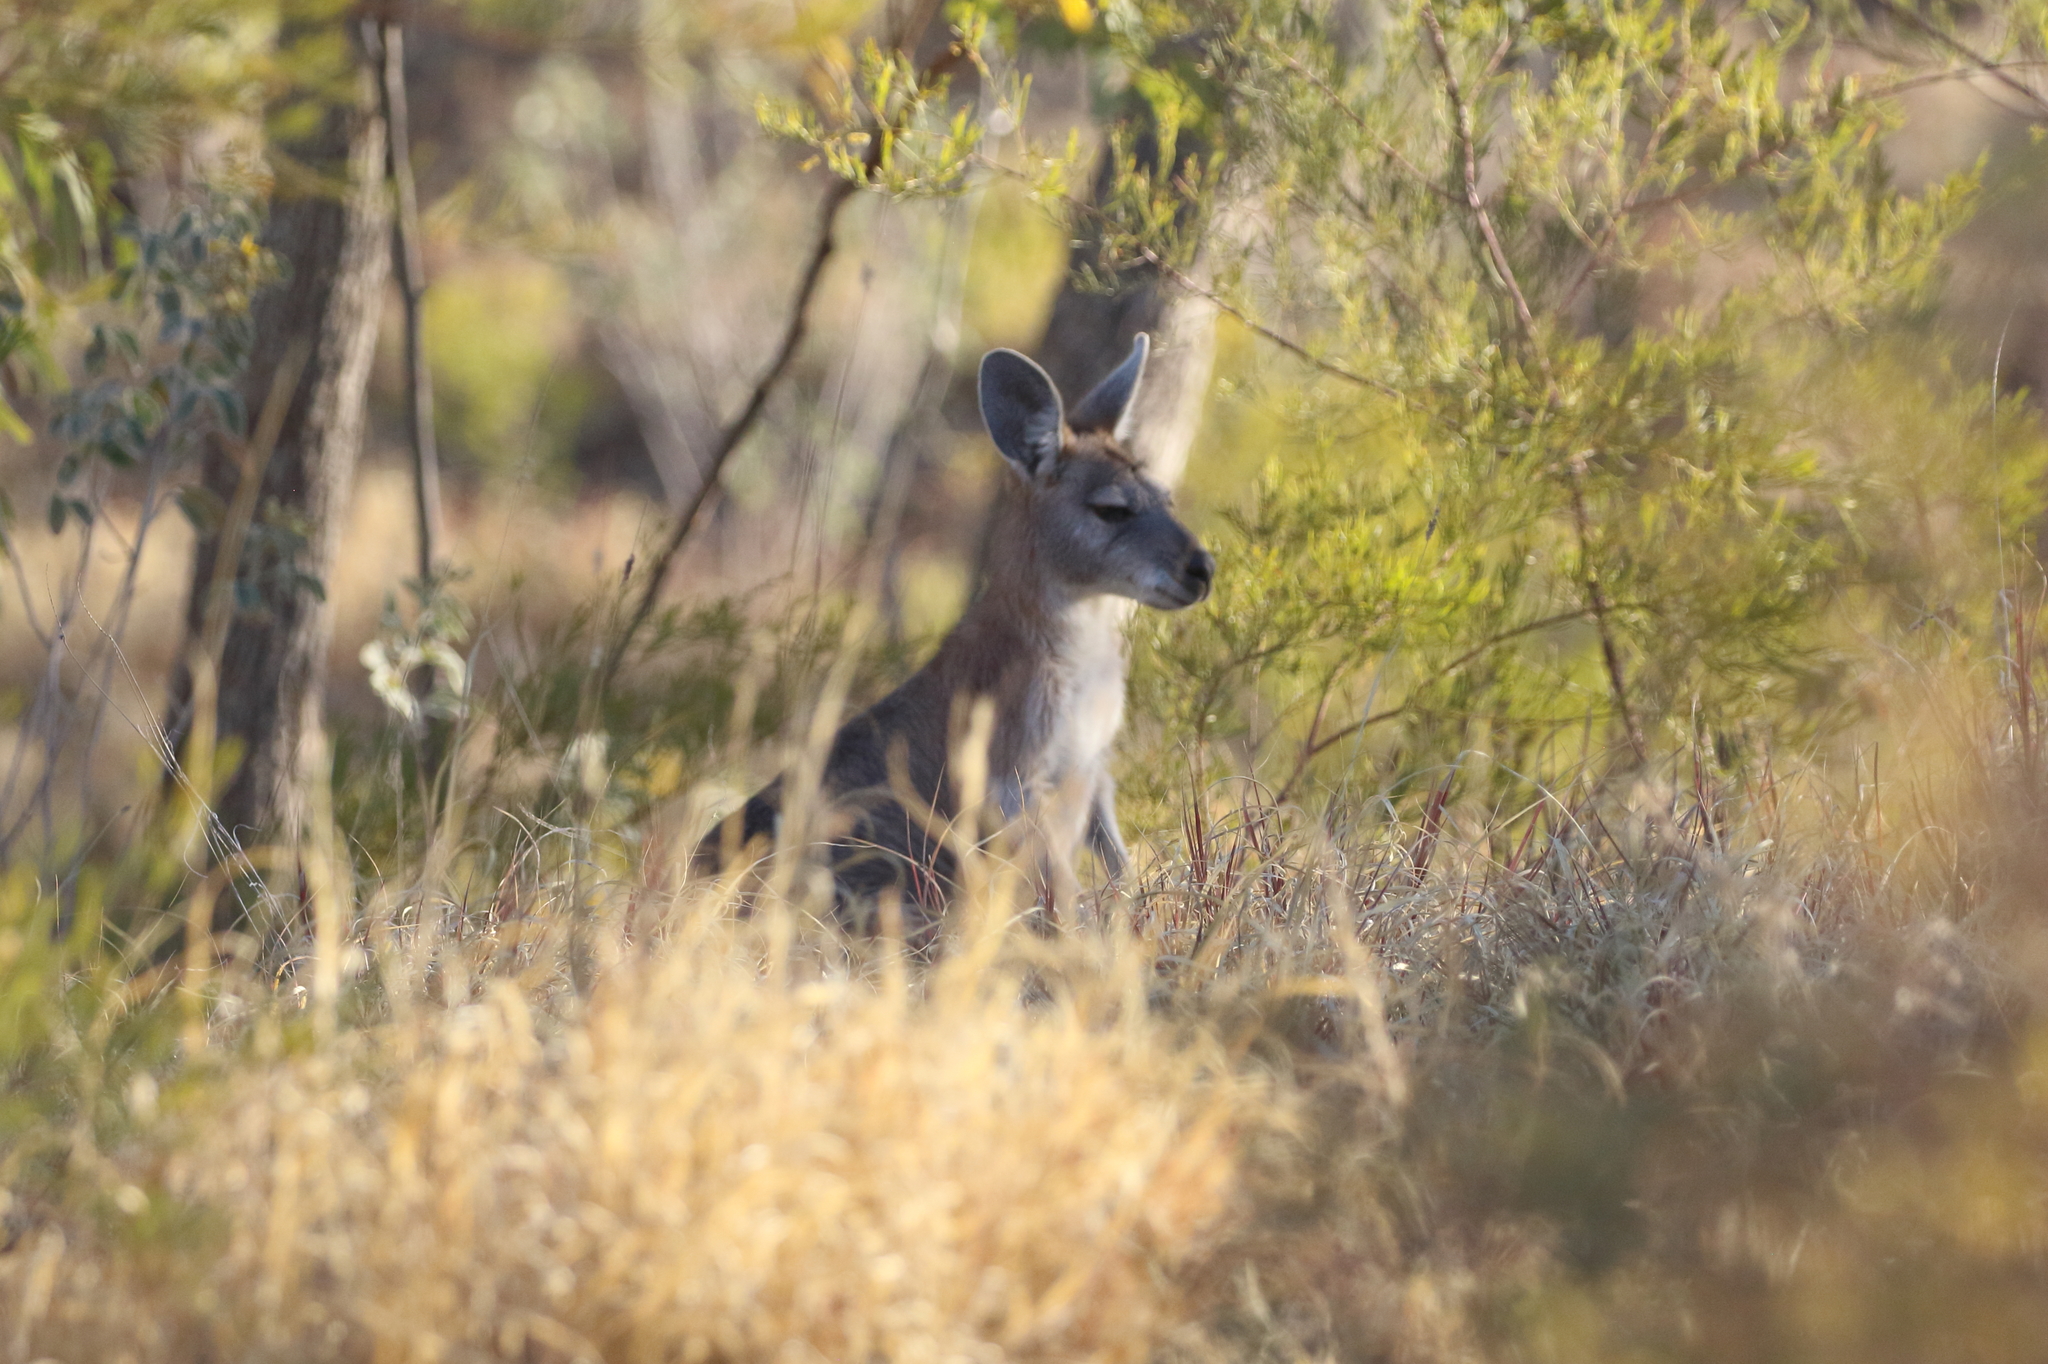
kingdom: Animalia
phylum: Chordata
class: Mammalia
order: Diprotodontia
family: Macropodidae
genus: Macropus
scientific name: Macropus robustus
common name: Eastern wallaroo
